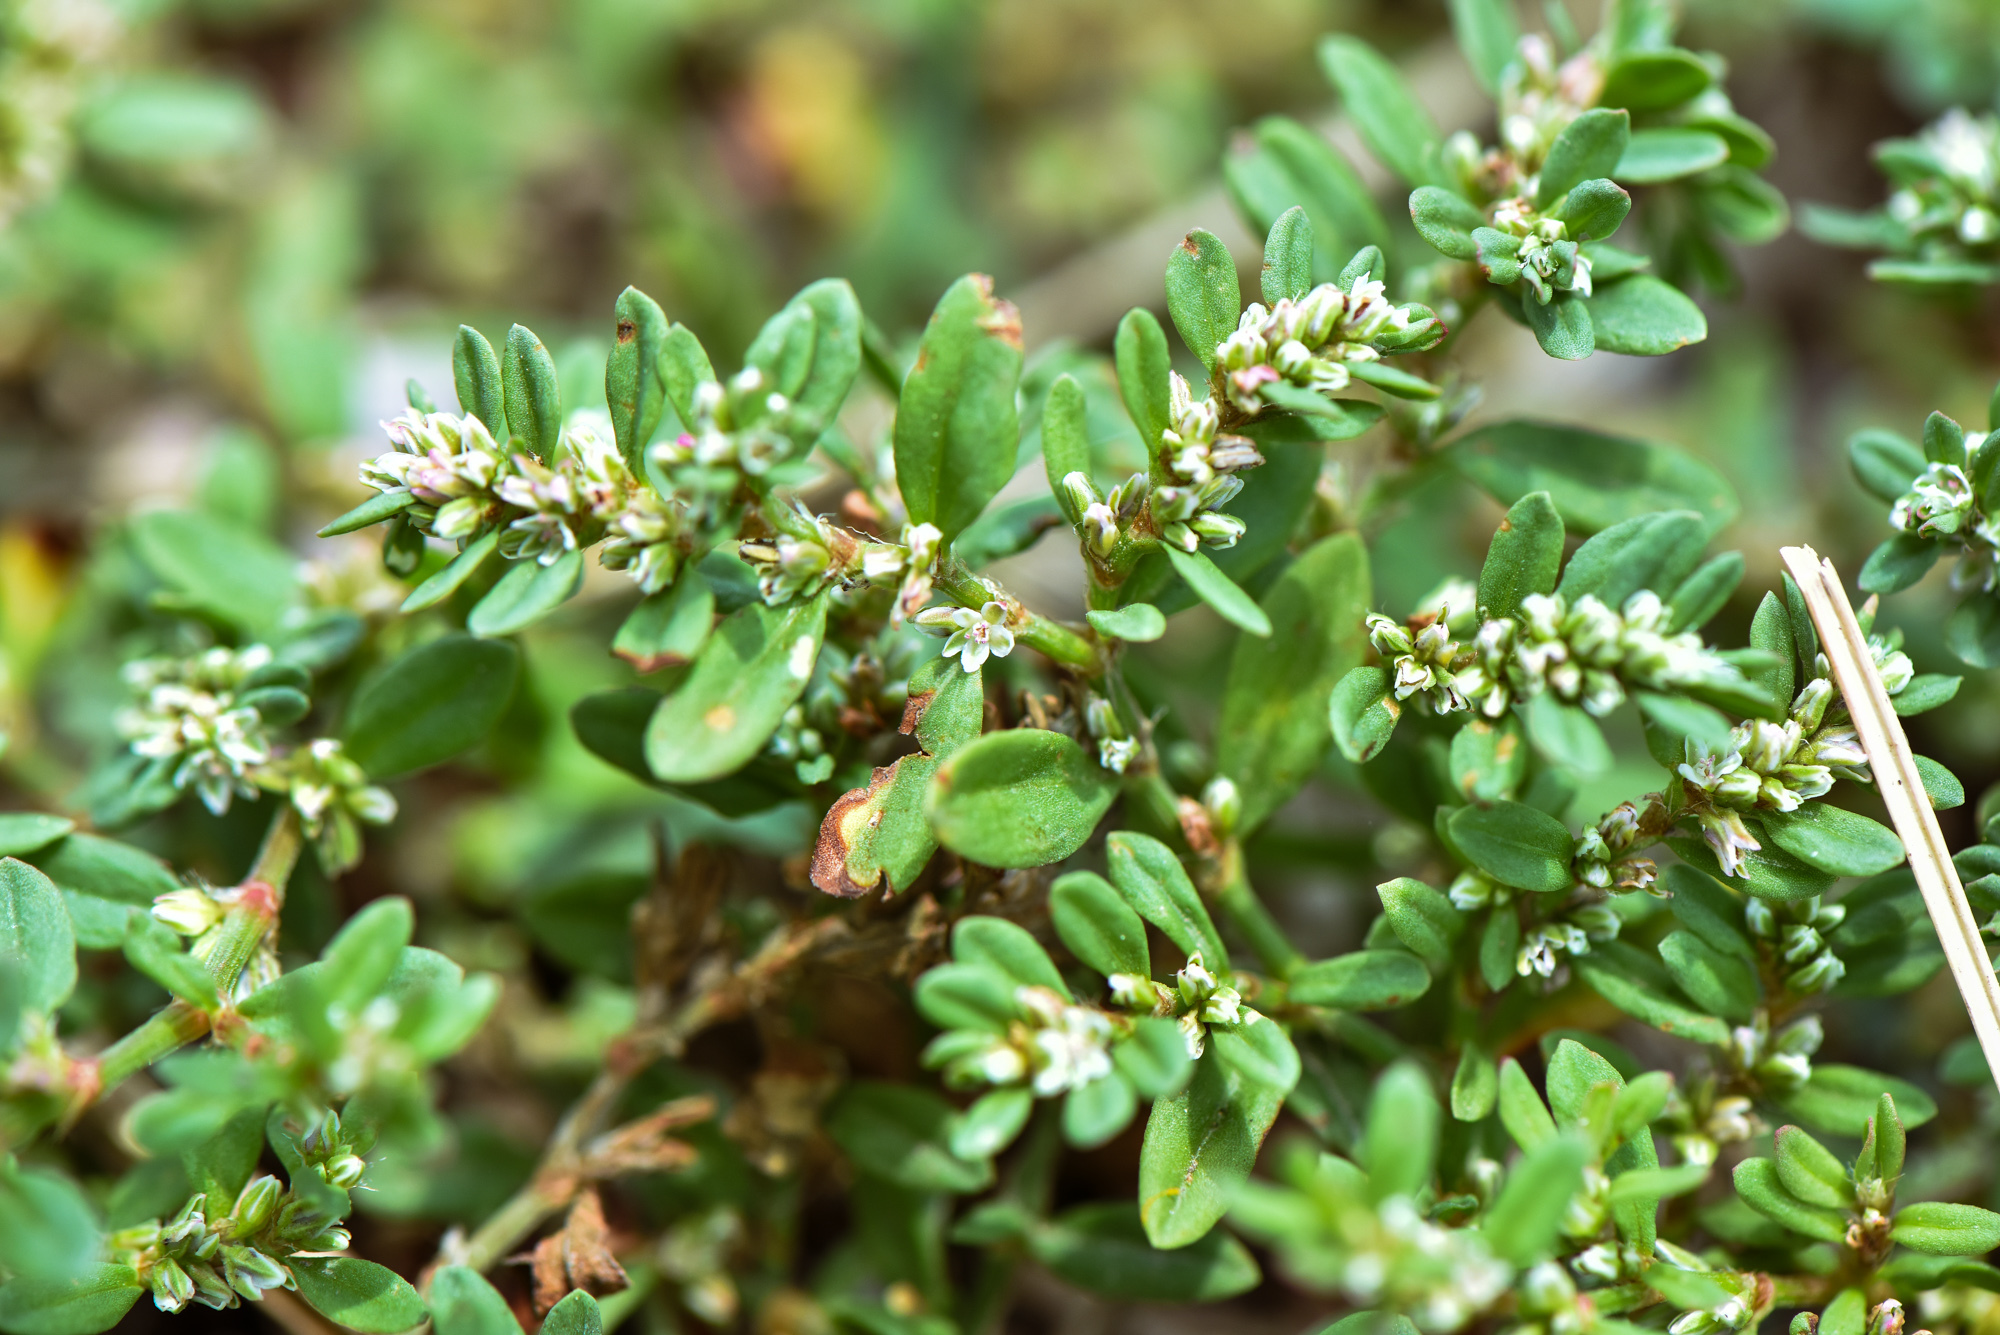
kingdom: Plantae
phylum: Tracheophyta
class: Magnoliopsida
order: Caryophyllales
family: Polygonaceae
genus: Polygonum
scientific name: Polygonum plebeium
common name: Common knotweed
